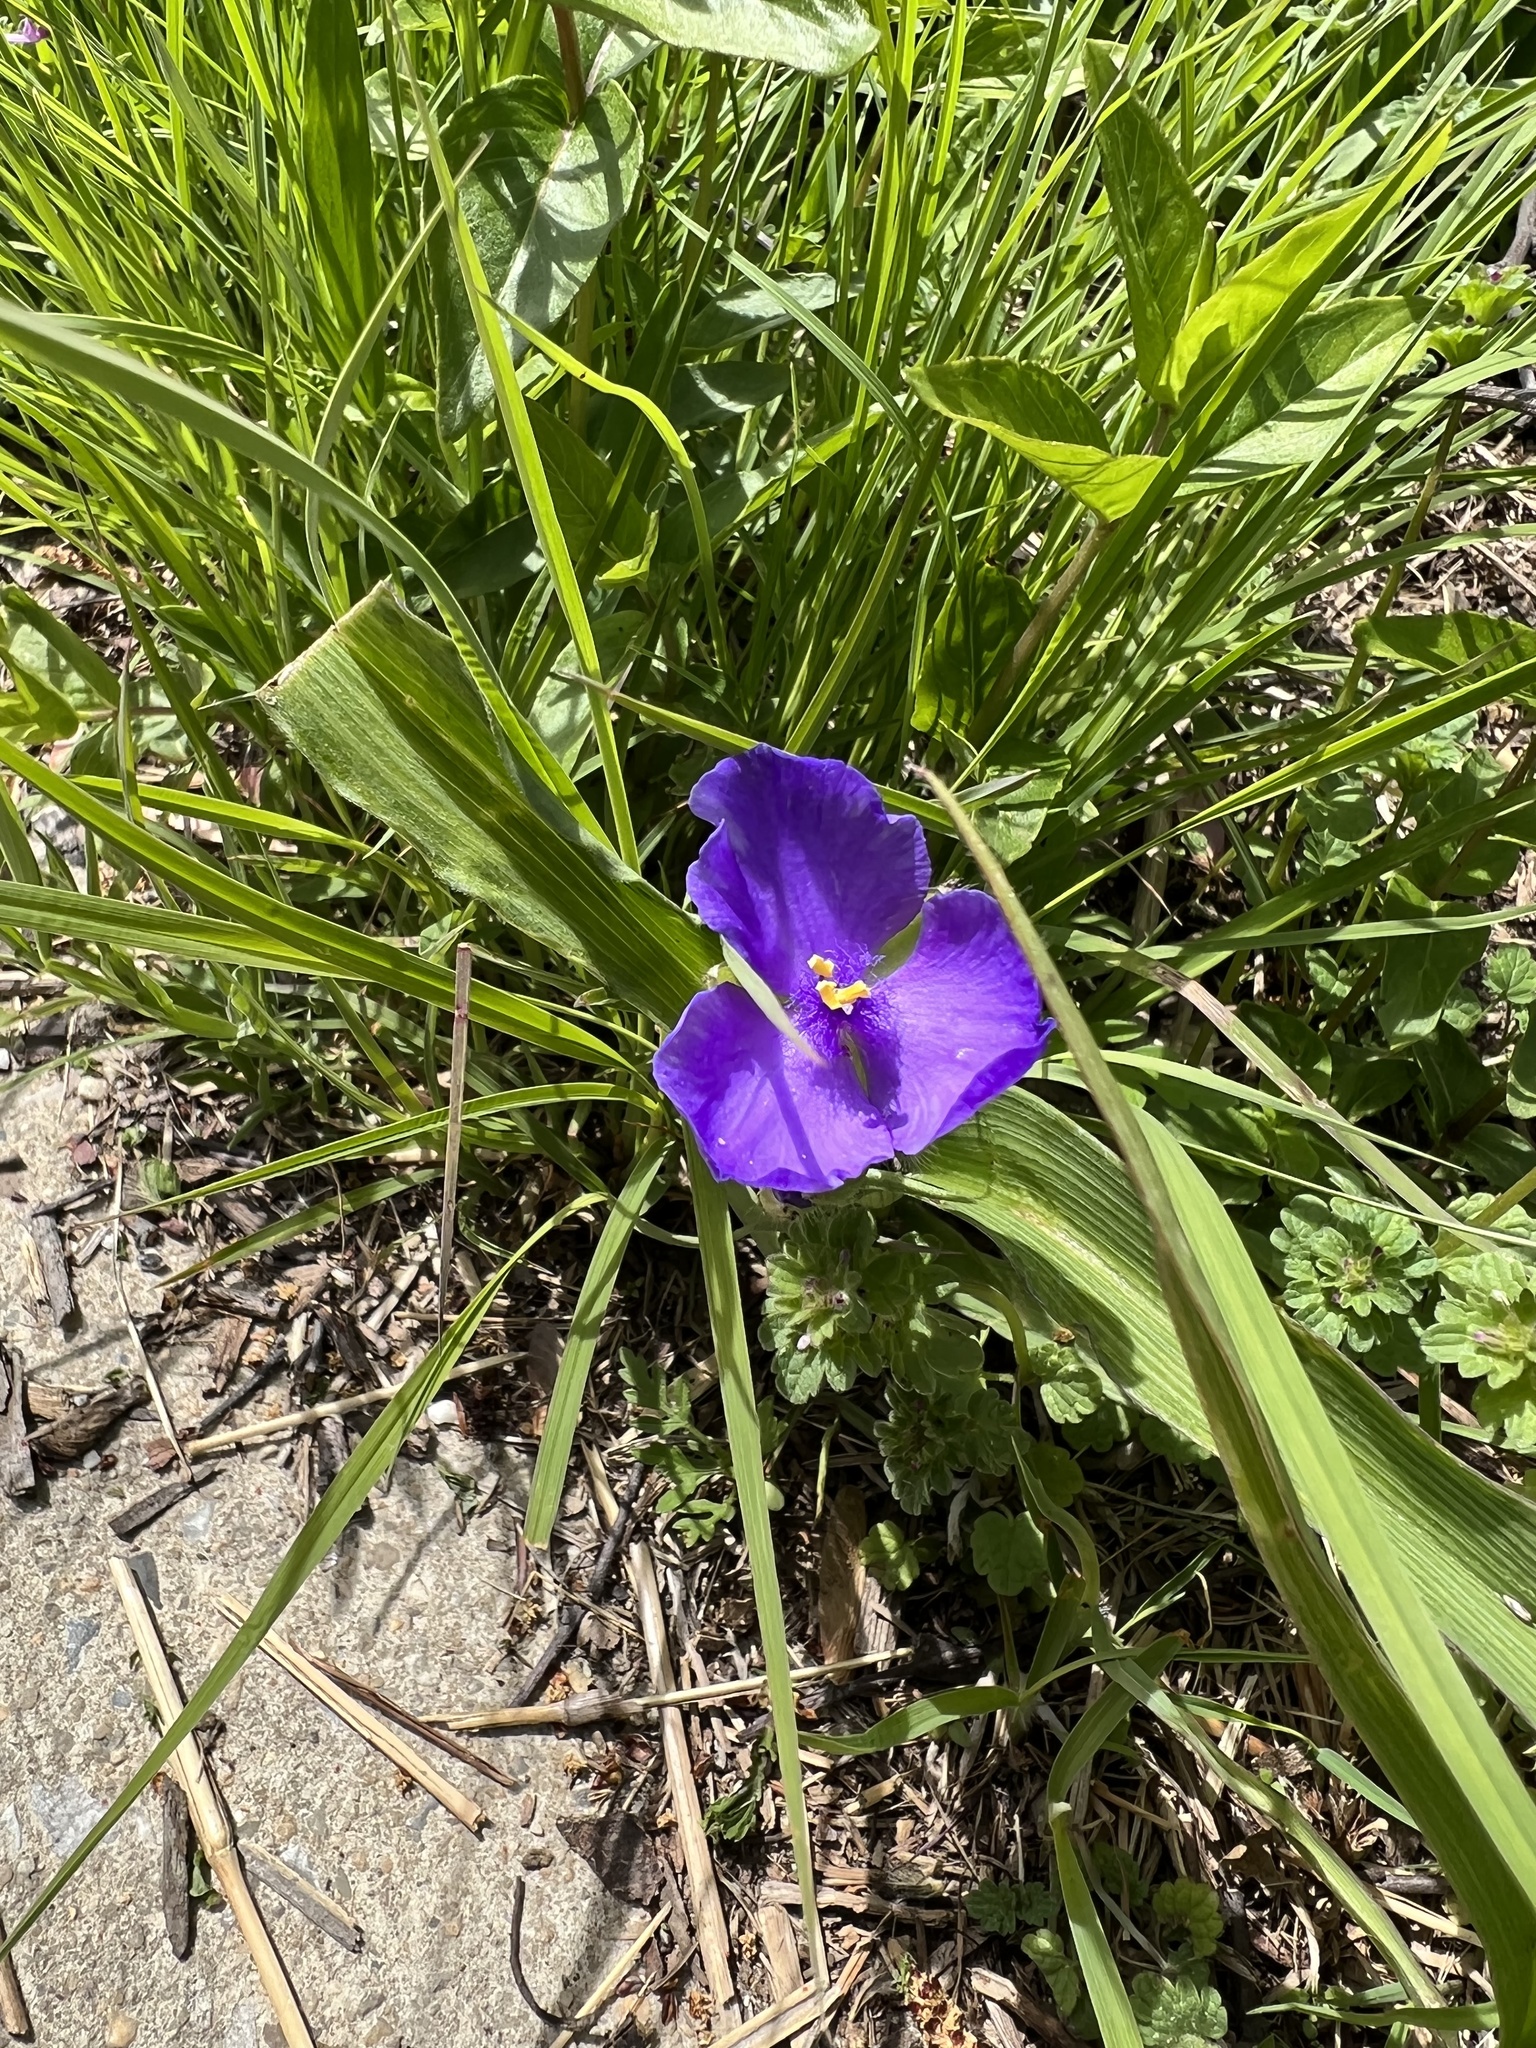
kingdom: Plantae
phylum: Tracheophyta
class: Liliopsida
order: Commelinales
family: Commelinaceae
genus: Tradescantia
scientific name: Tradescantia virginiana
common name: Spiderwort
